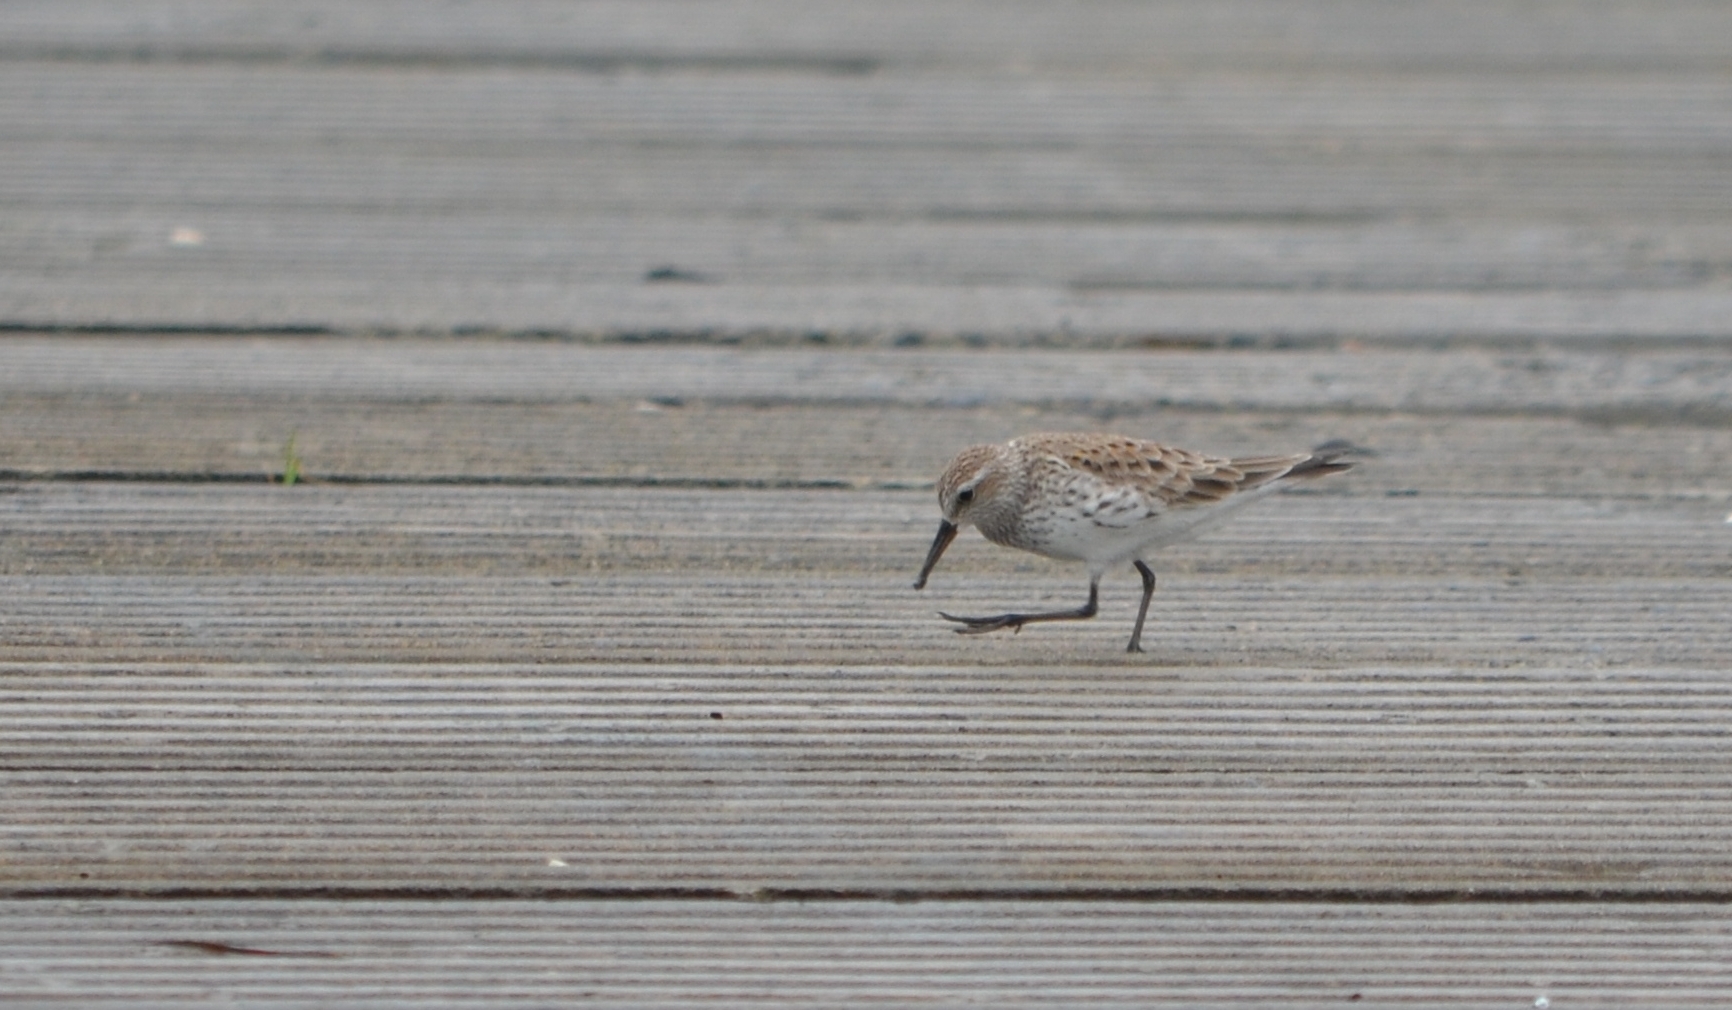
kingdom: Animalia
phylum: Chordata
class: Aves
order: Charadriiformes
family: Scolopacidae
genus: Calidris
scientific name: Calidris fuscicollis
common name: White-rumped sandpiper
